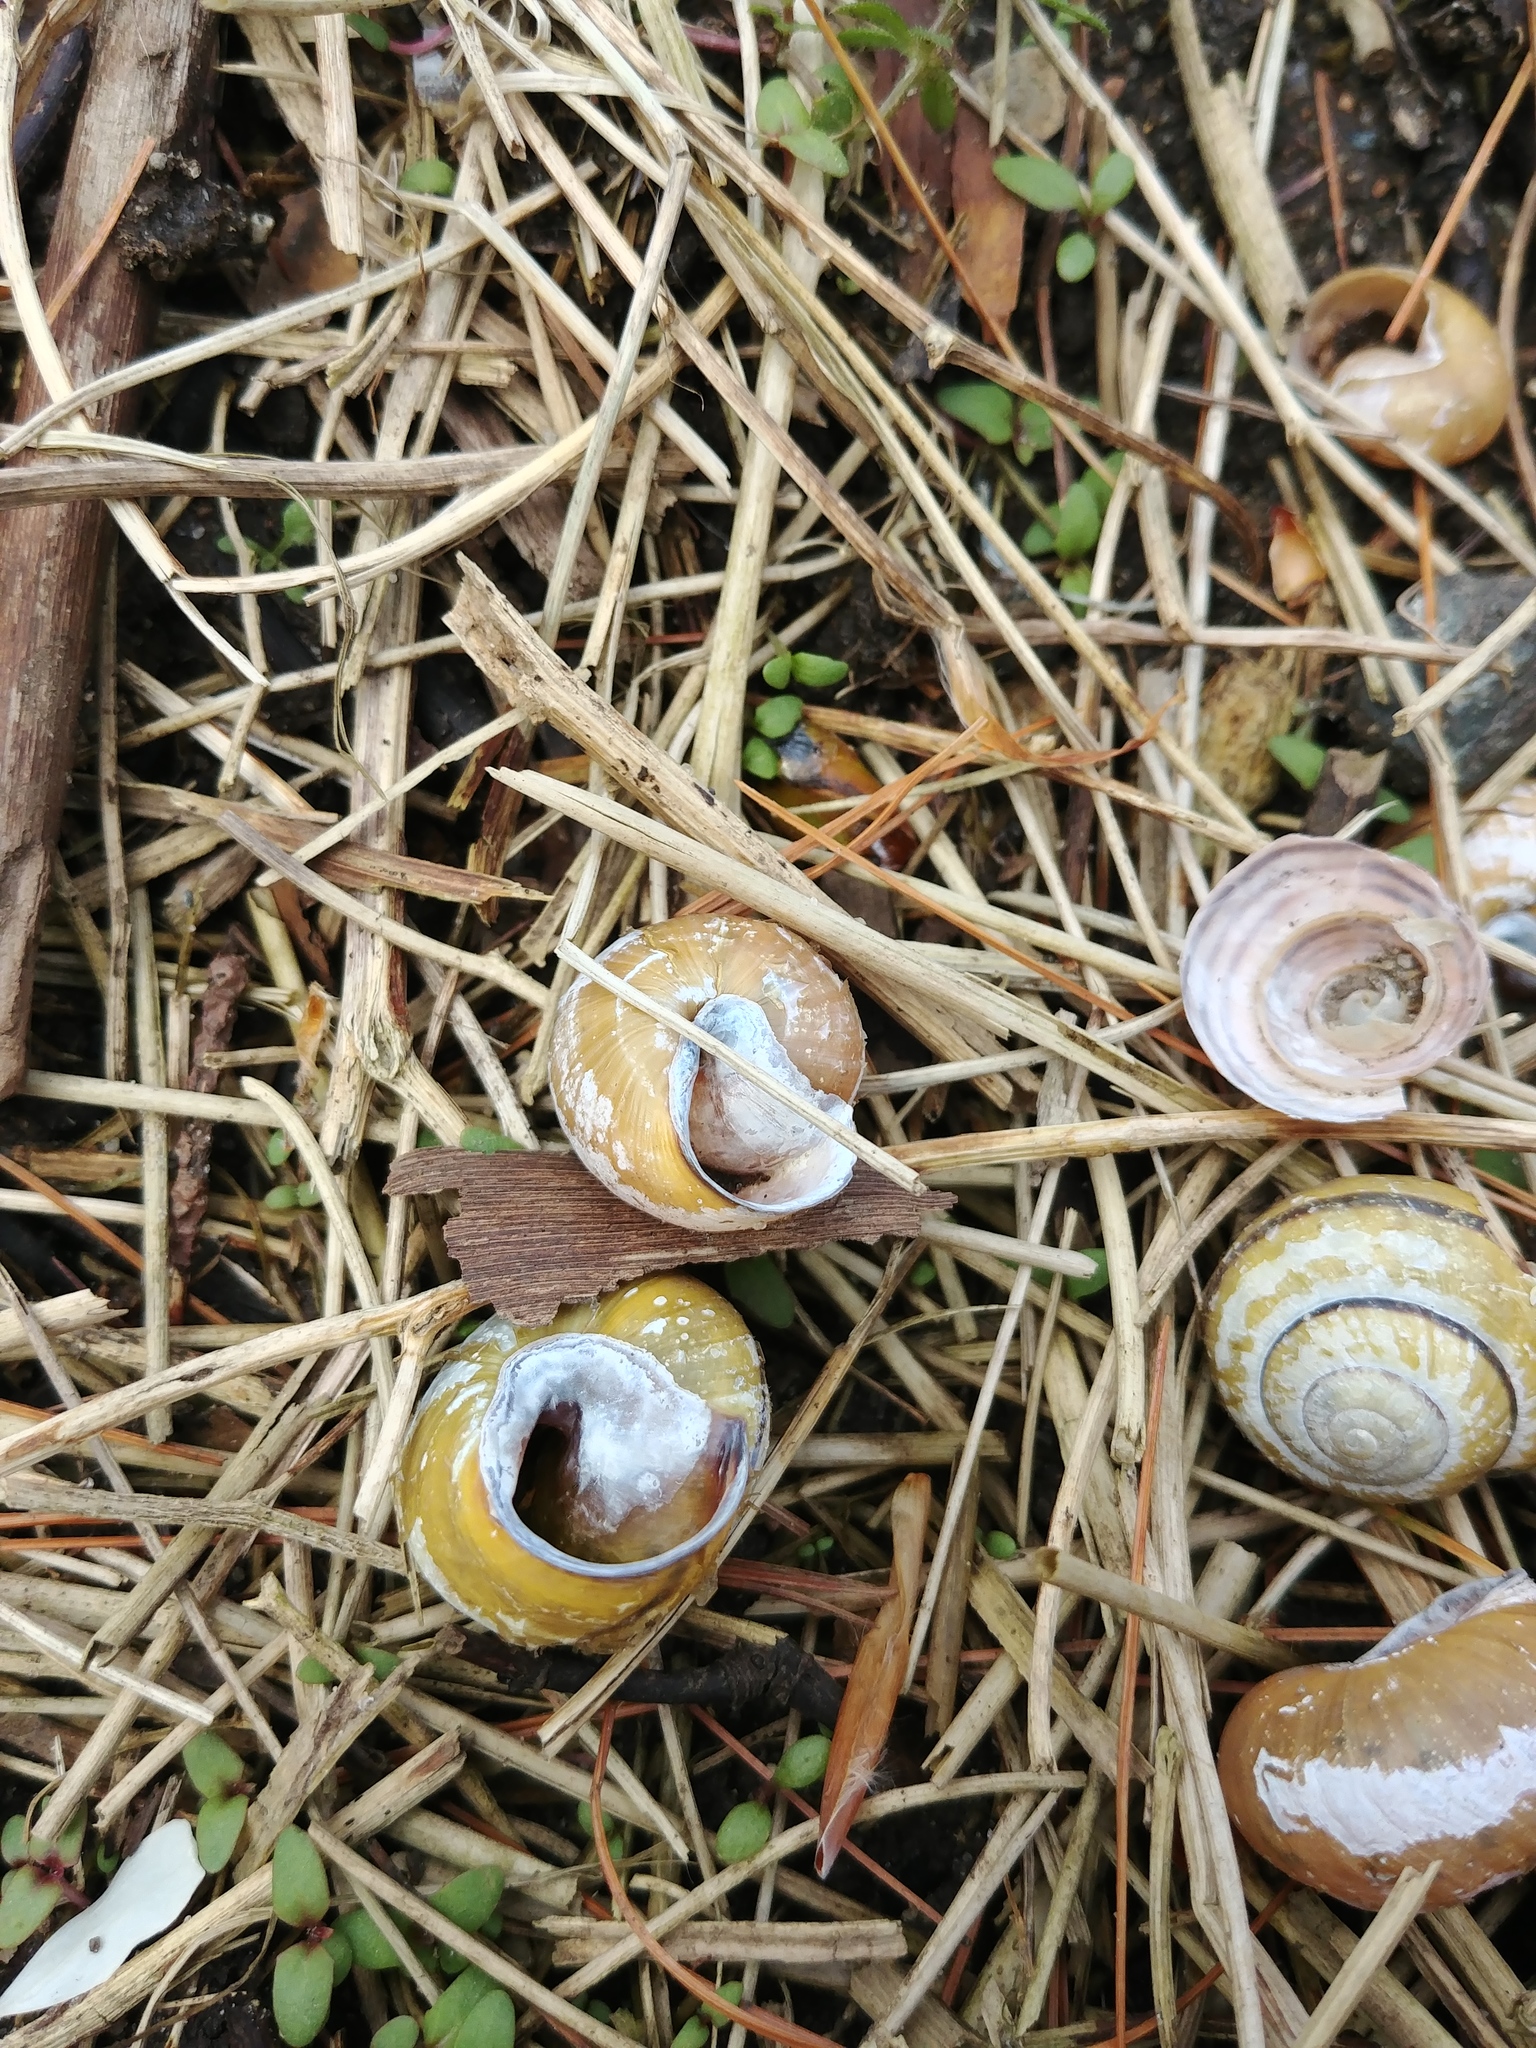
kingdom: Animalia
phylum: Mollusca
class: Gastropoda
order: Stylommatophora
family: Helicidae
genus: Cepaea
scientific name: Cepaea nemoralis
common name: Grovesnail
